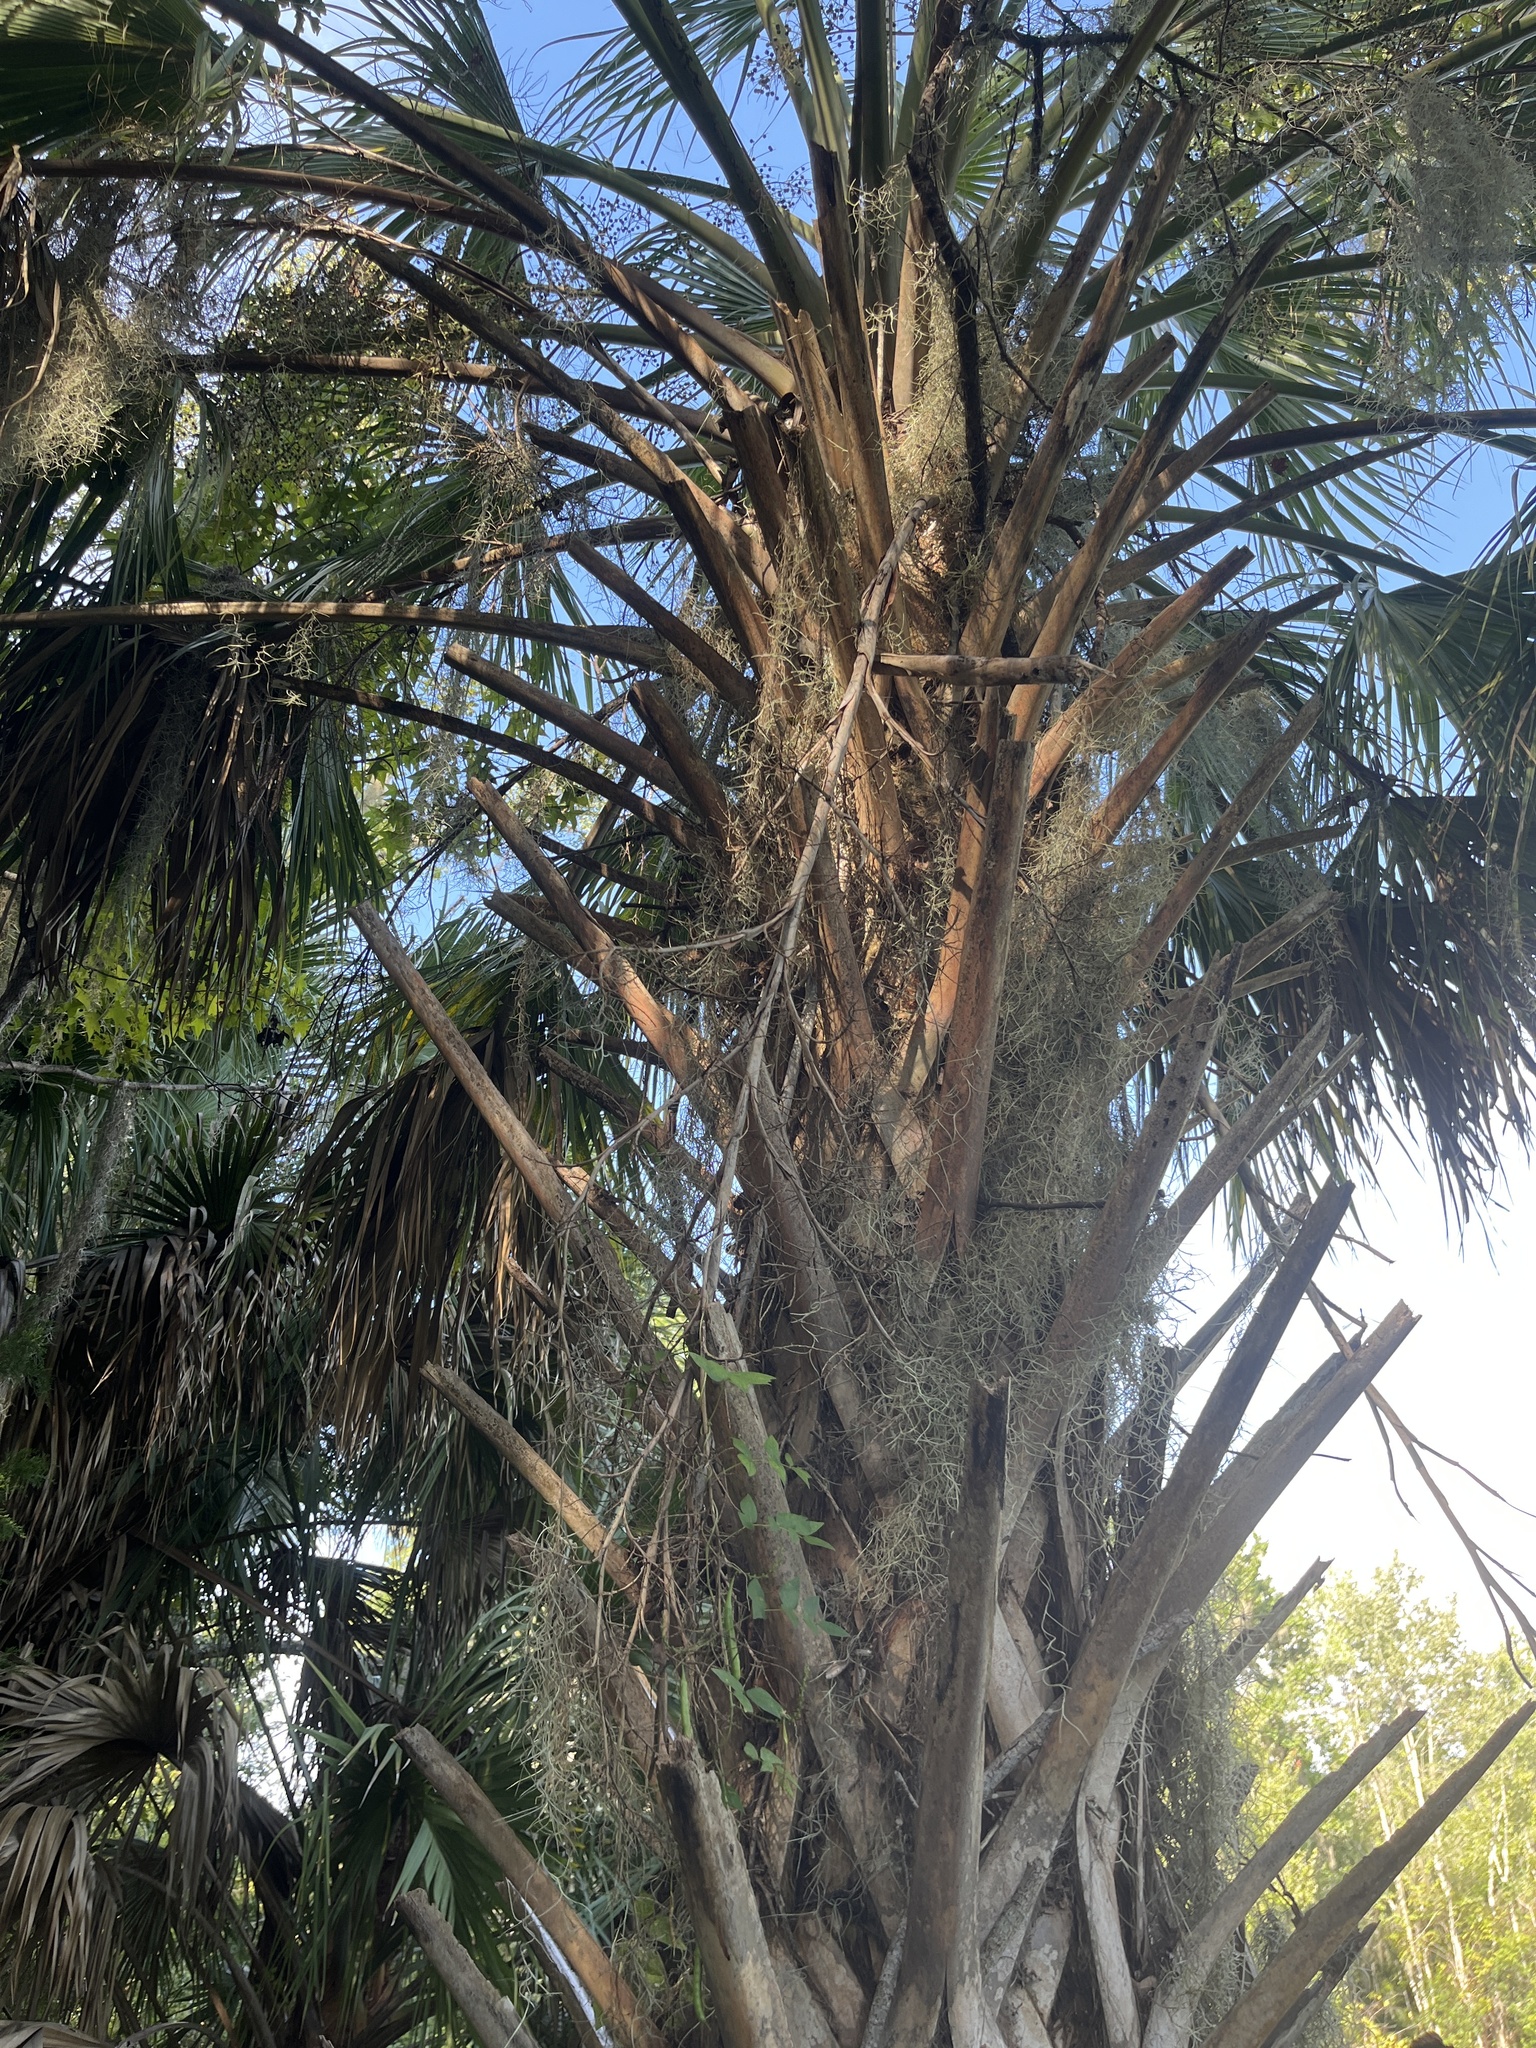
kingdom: Plantae
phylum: Tracheophyta
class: Liliopsida
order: Arecales
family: Arecaceae
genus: Sabal
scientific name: Sabal palmetto
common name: Blue palmetto
